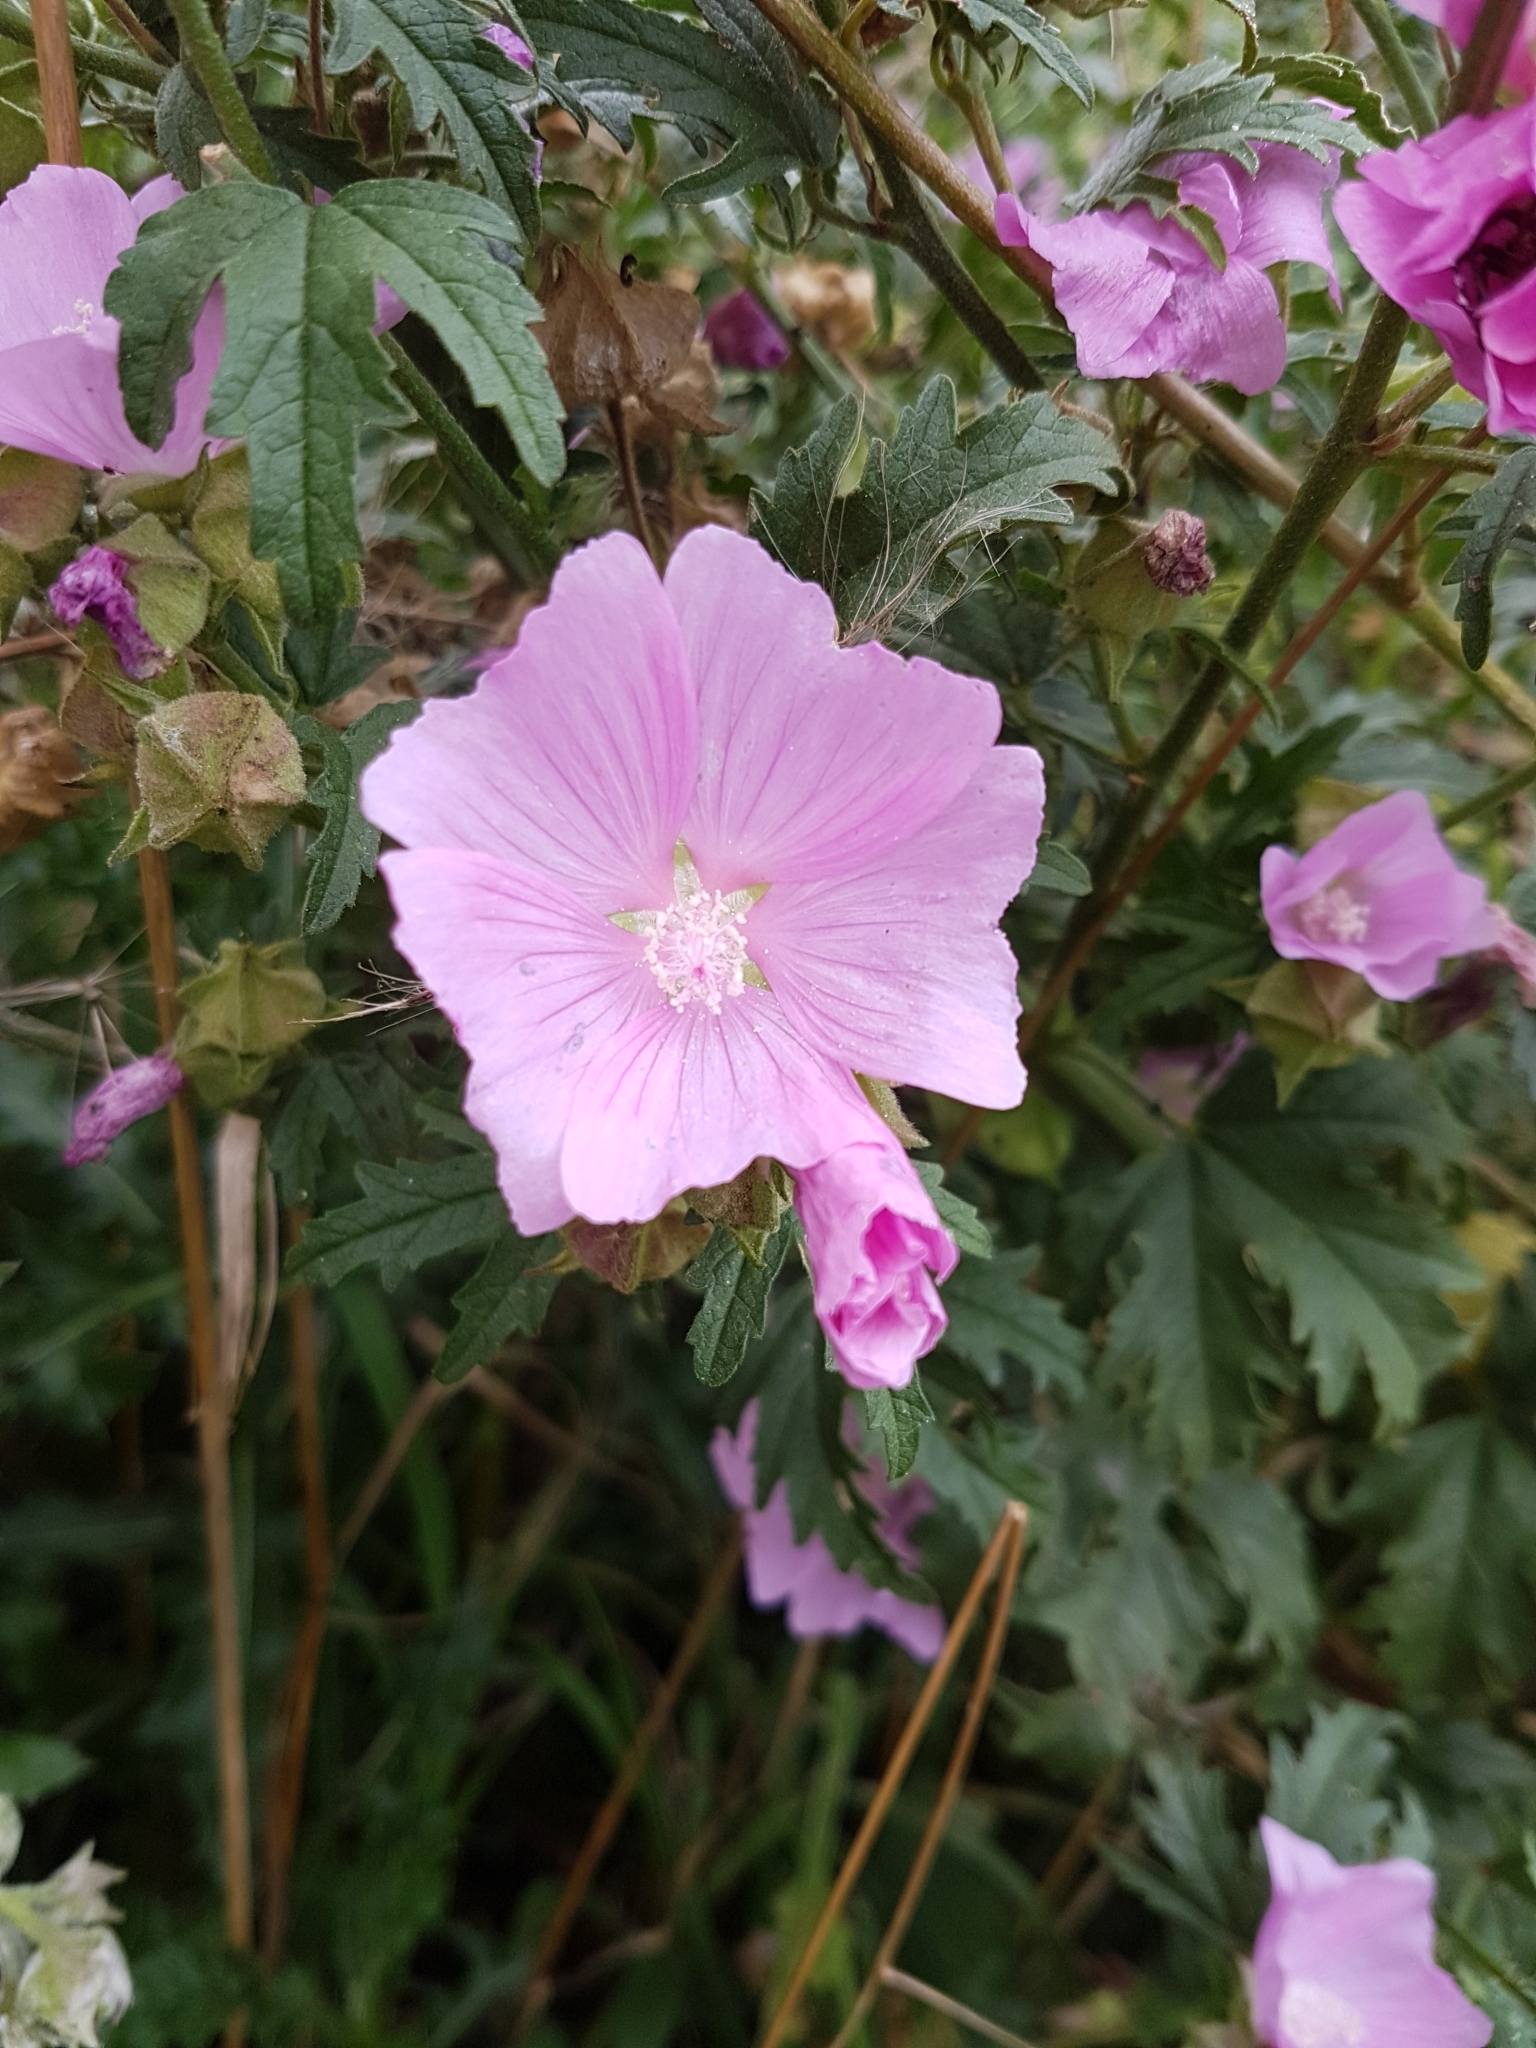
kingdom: Plantae
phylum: Tracheophyta
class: Magnoliopsida
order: Malvales
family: Malvaceae
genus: Malva
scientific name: Malva alcea
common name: Greater musk-mallow
